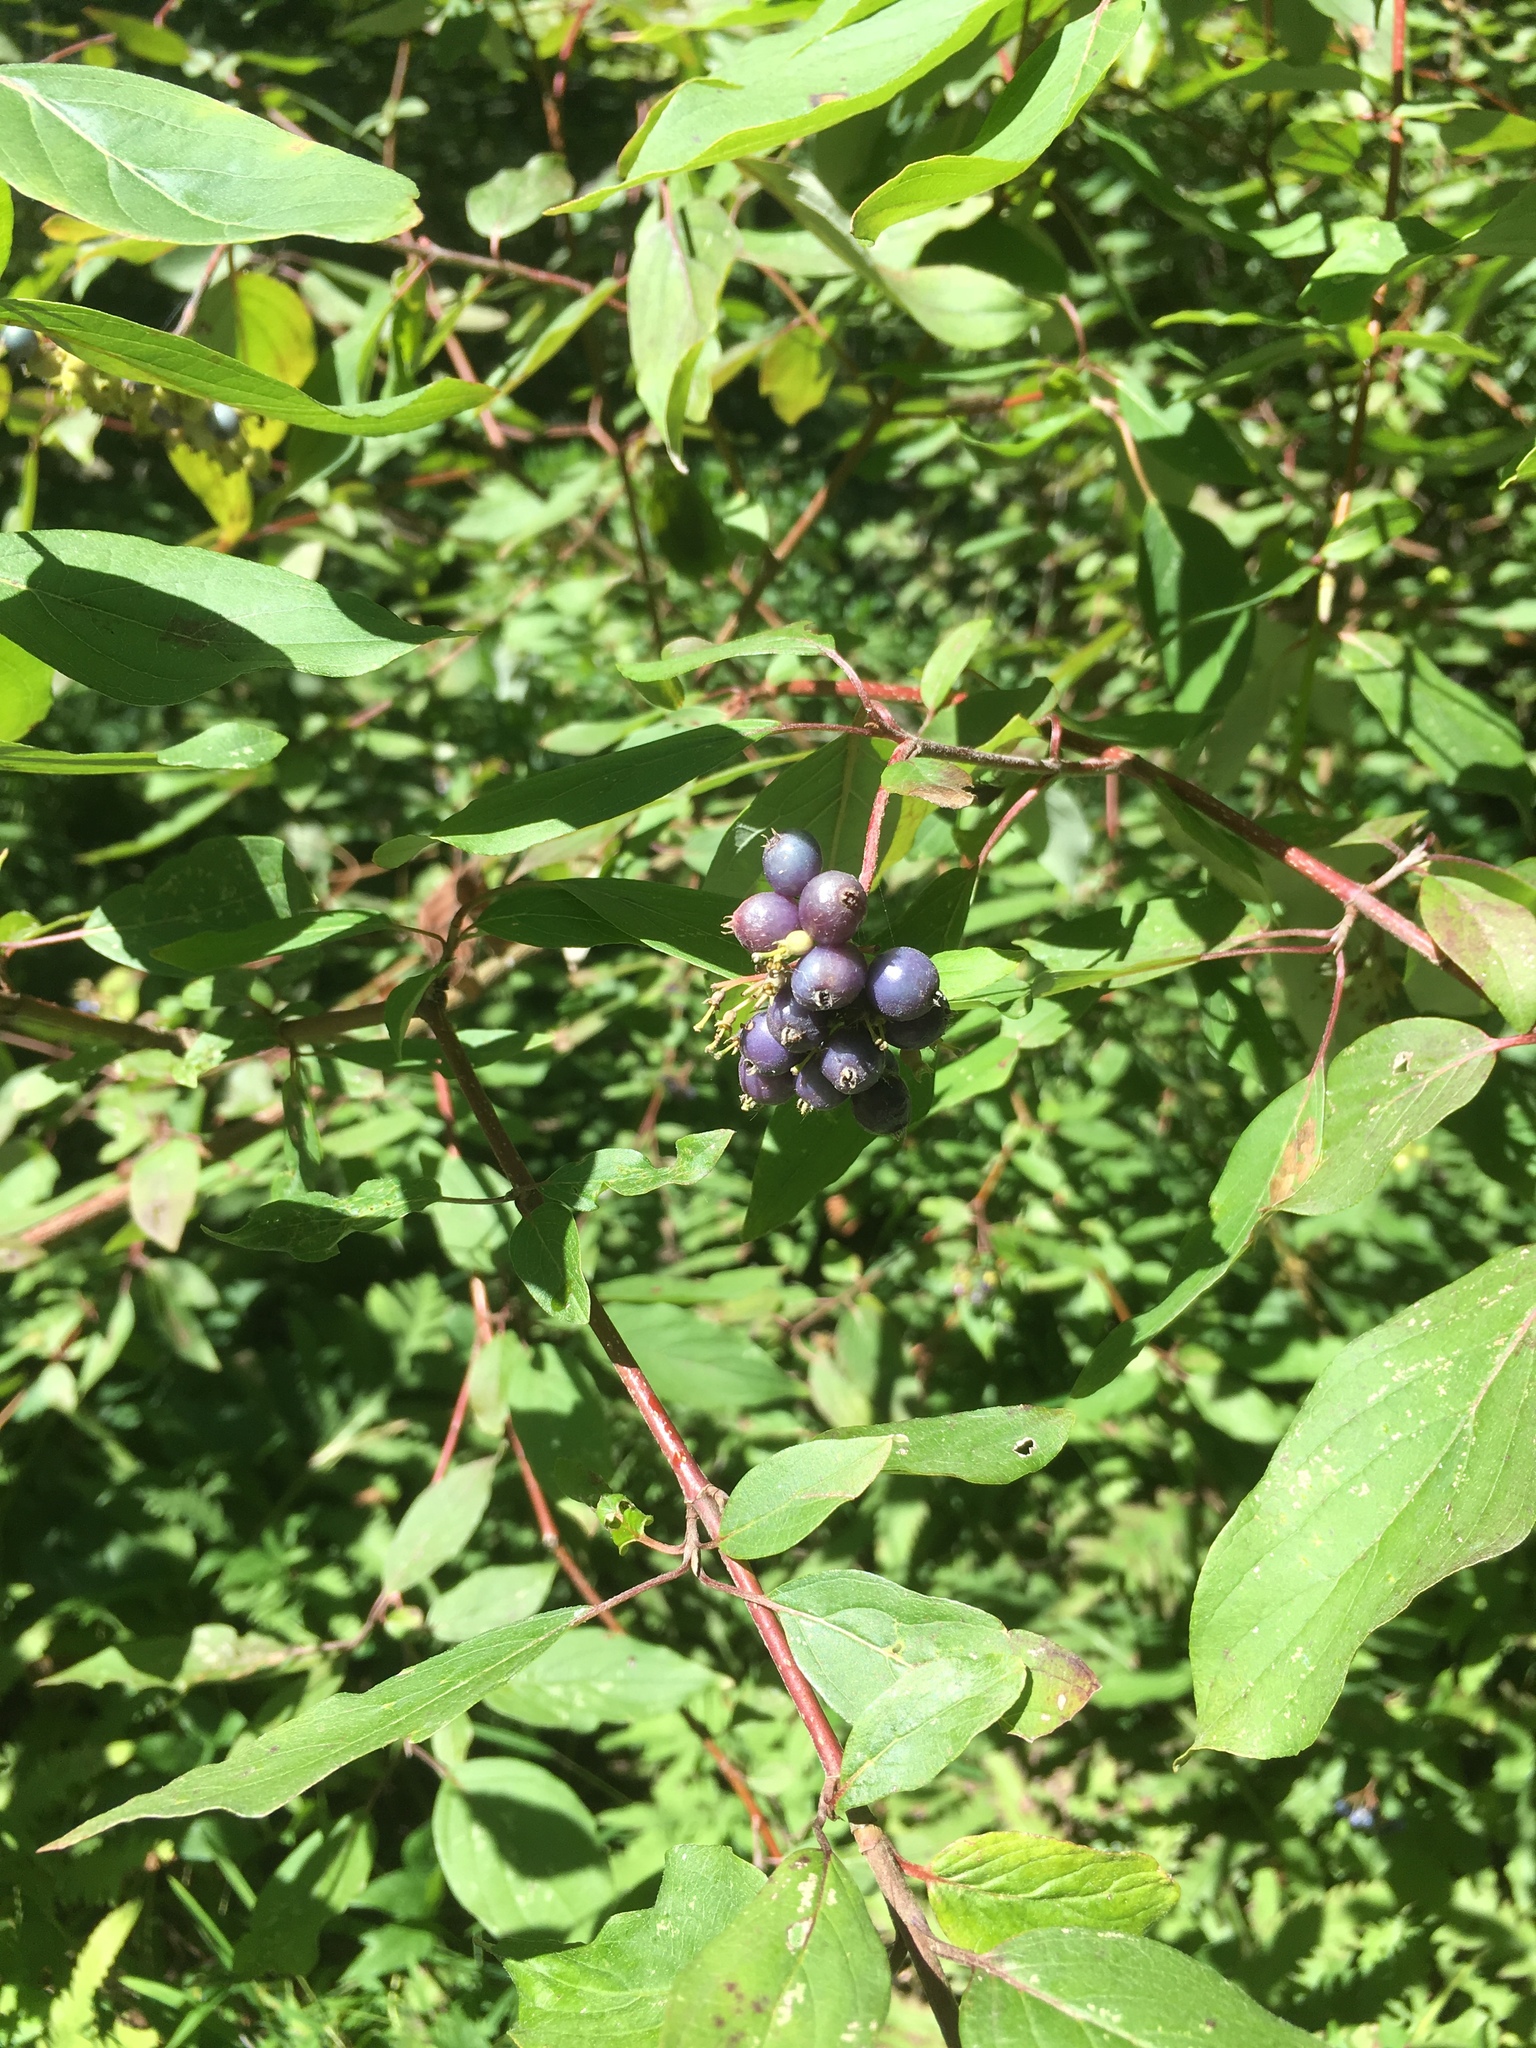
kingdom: Plantae
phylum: Tracheophyta
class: Magnoliopsida
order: Cornales
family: Cornaceae
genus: Cornus
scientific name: Cornus amomum
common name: Silky dogwood
